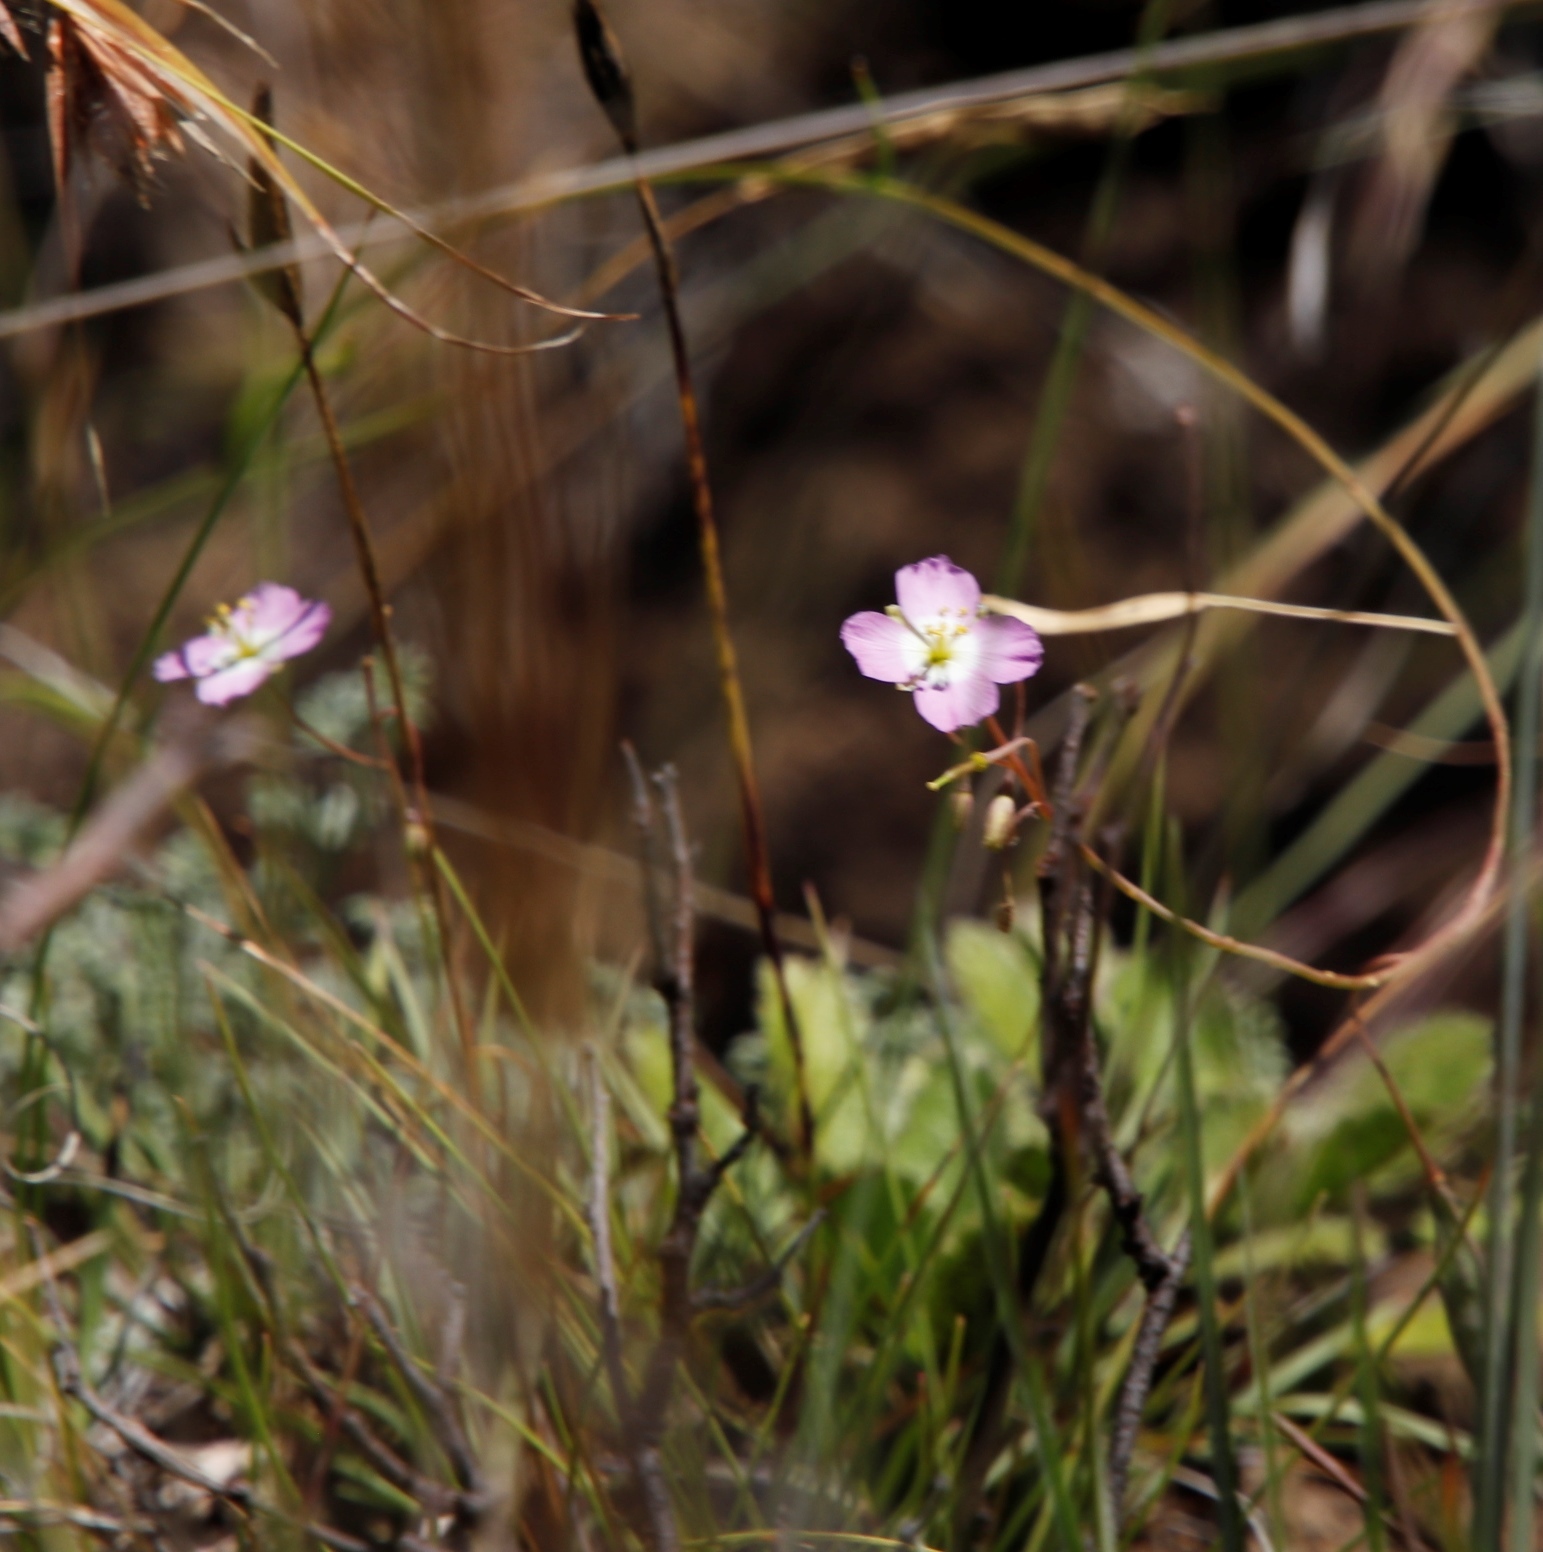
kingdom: Plantae
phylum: Tracheophyta
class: Magnoliopsida
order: Brassicales
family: Brassicaceae
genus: Heliophila
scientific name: Heliophila carnosa
